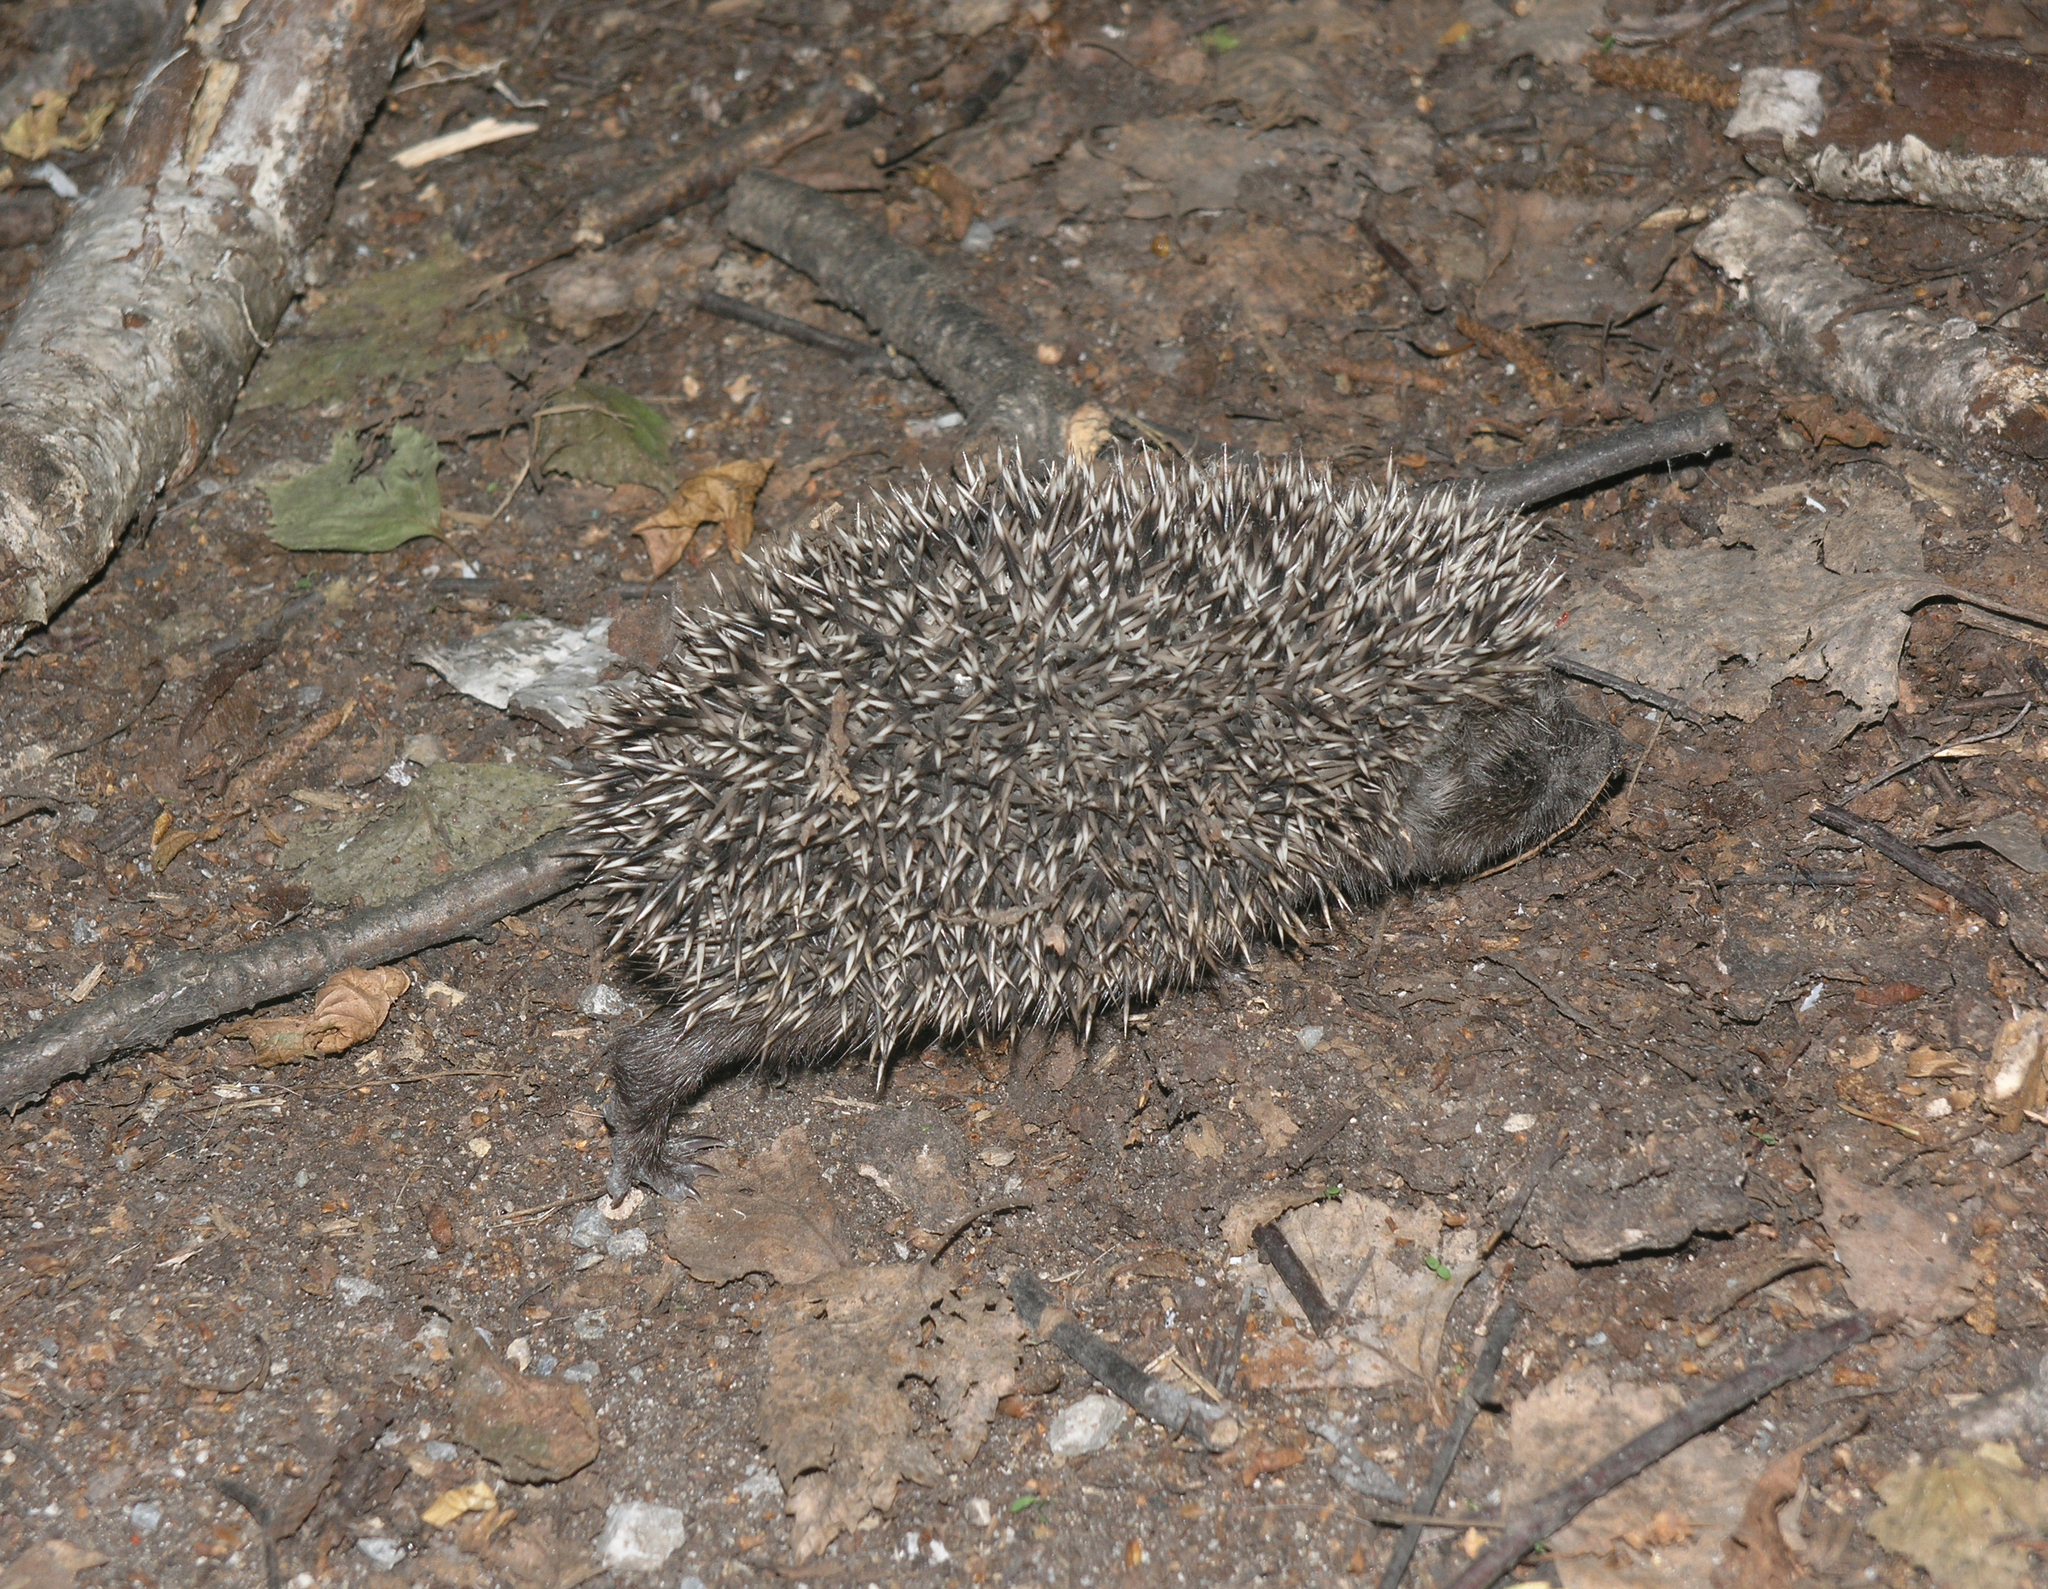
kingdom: Animalia
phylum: Chordata
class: Mammalia
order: Erinaceomorpha
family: Erinaceidae
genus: Erinaceus
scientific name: Erinaceus roumanicus
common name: Northern white-breasted hedgehog
